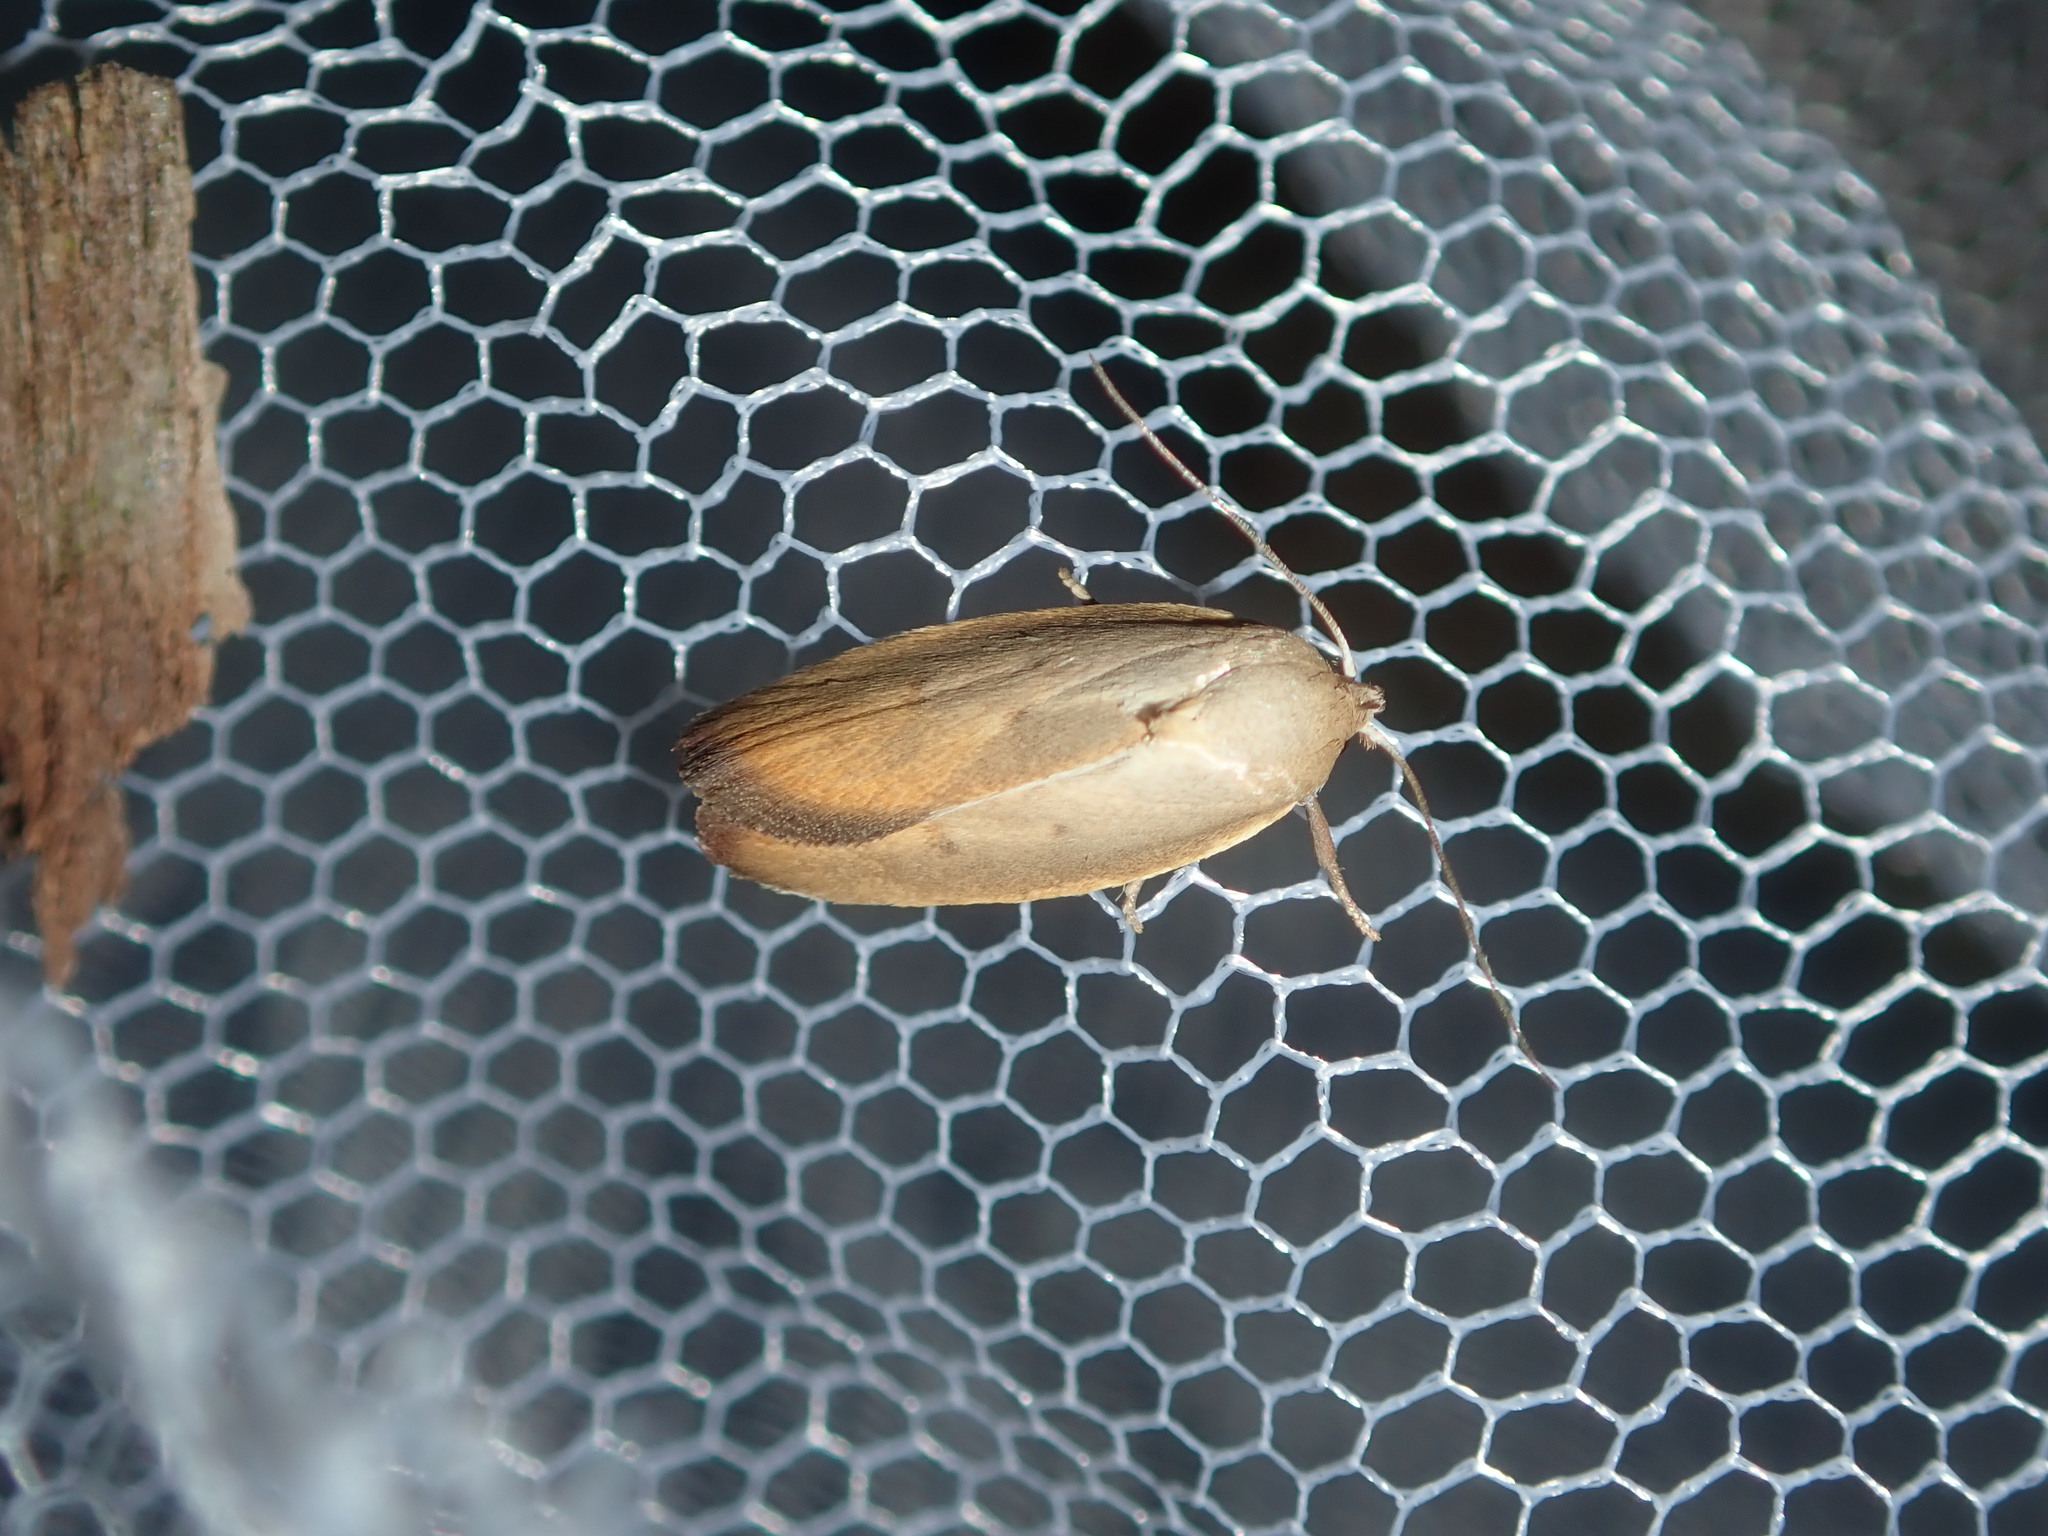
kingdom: Animalia
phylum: Arthropoda
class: Insecta
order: Lepidoptera
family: Oecophoridae
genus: Ptyoptila
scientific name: Ptyoptila matutinella
